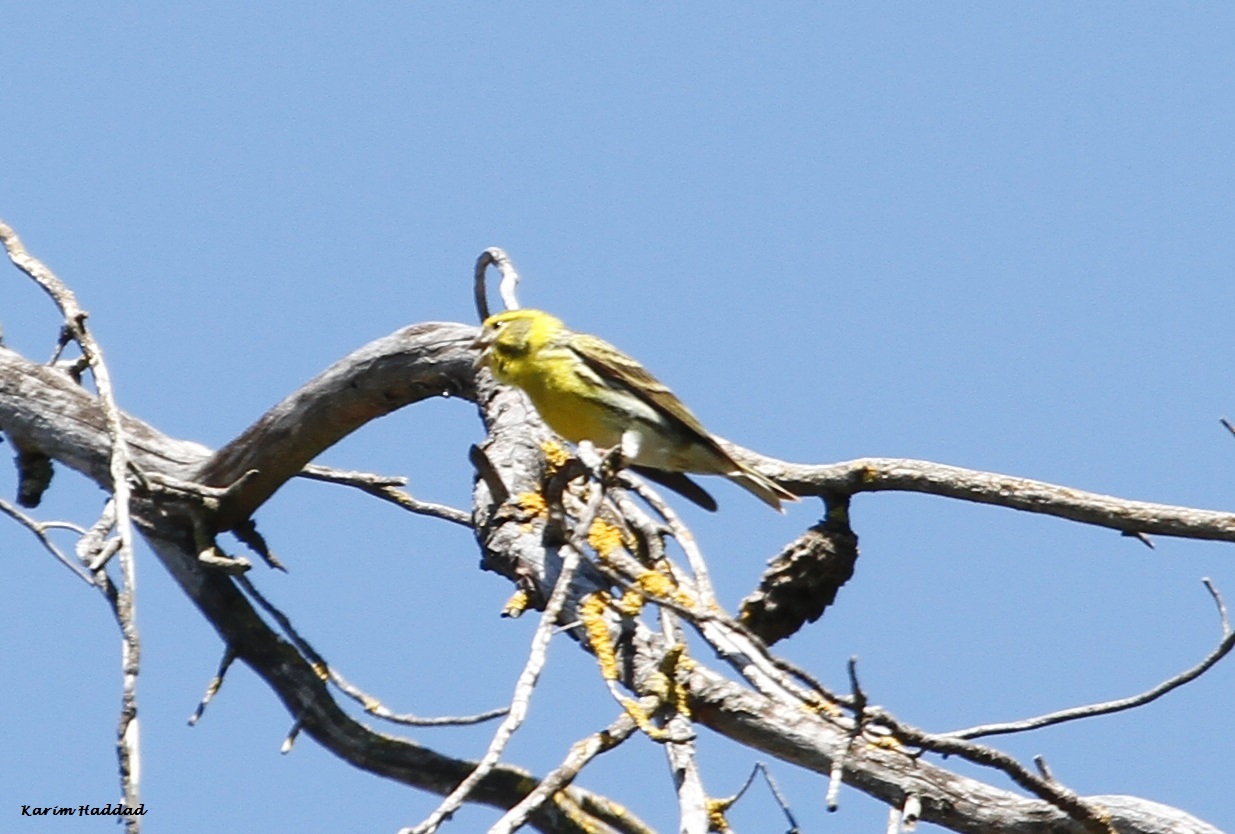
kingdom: Animalia
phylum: Chordata
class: Aves
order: Passeriformes
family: Fringillidae
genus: Serinus
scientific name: Serinus serinus
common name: European serin
